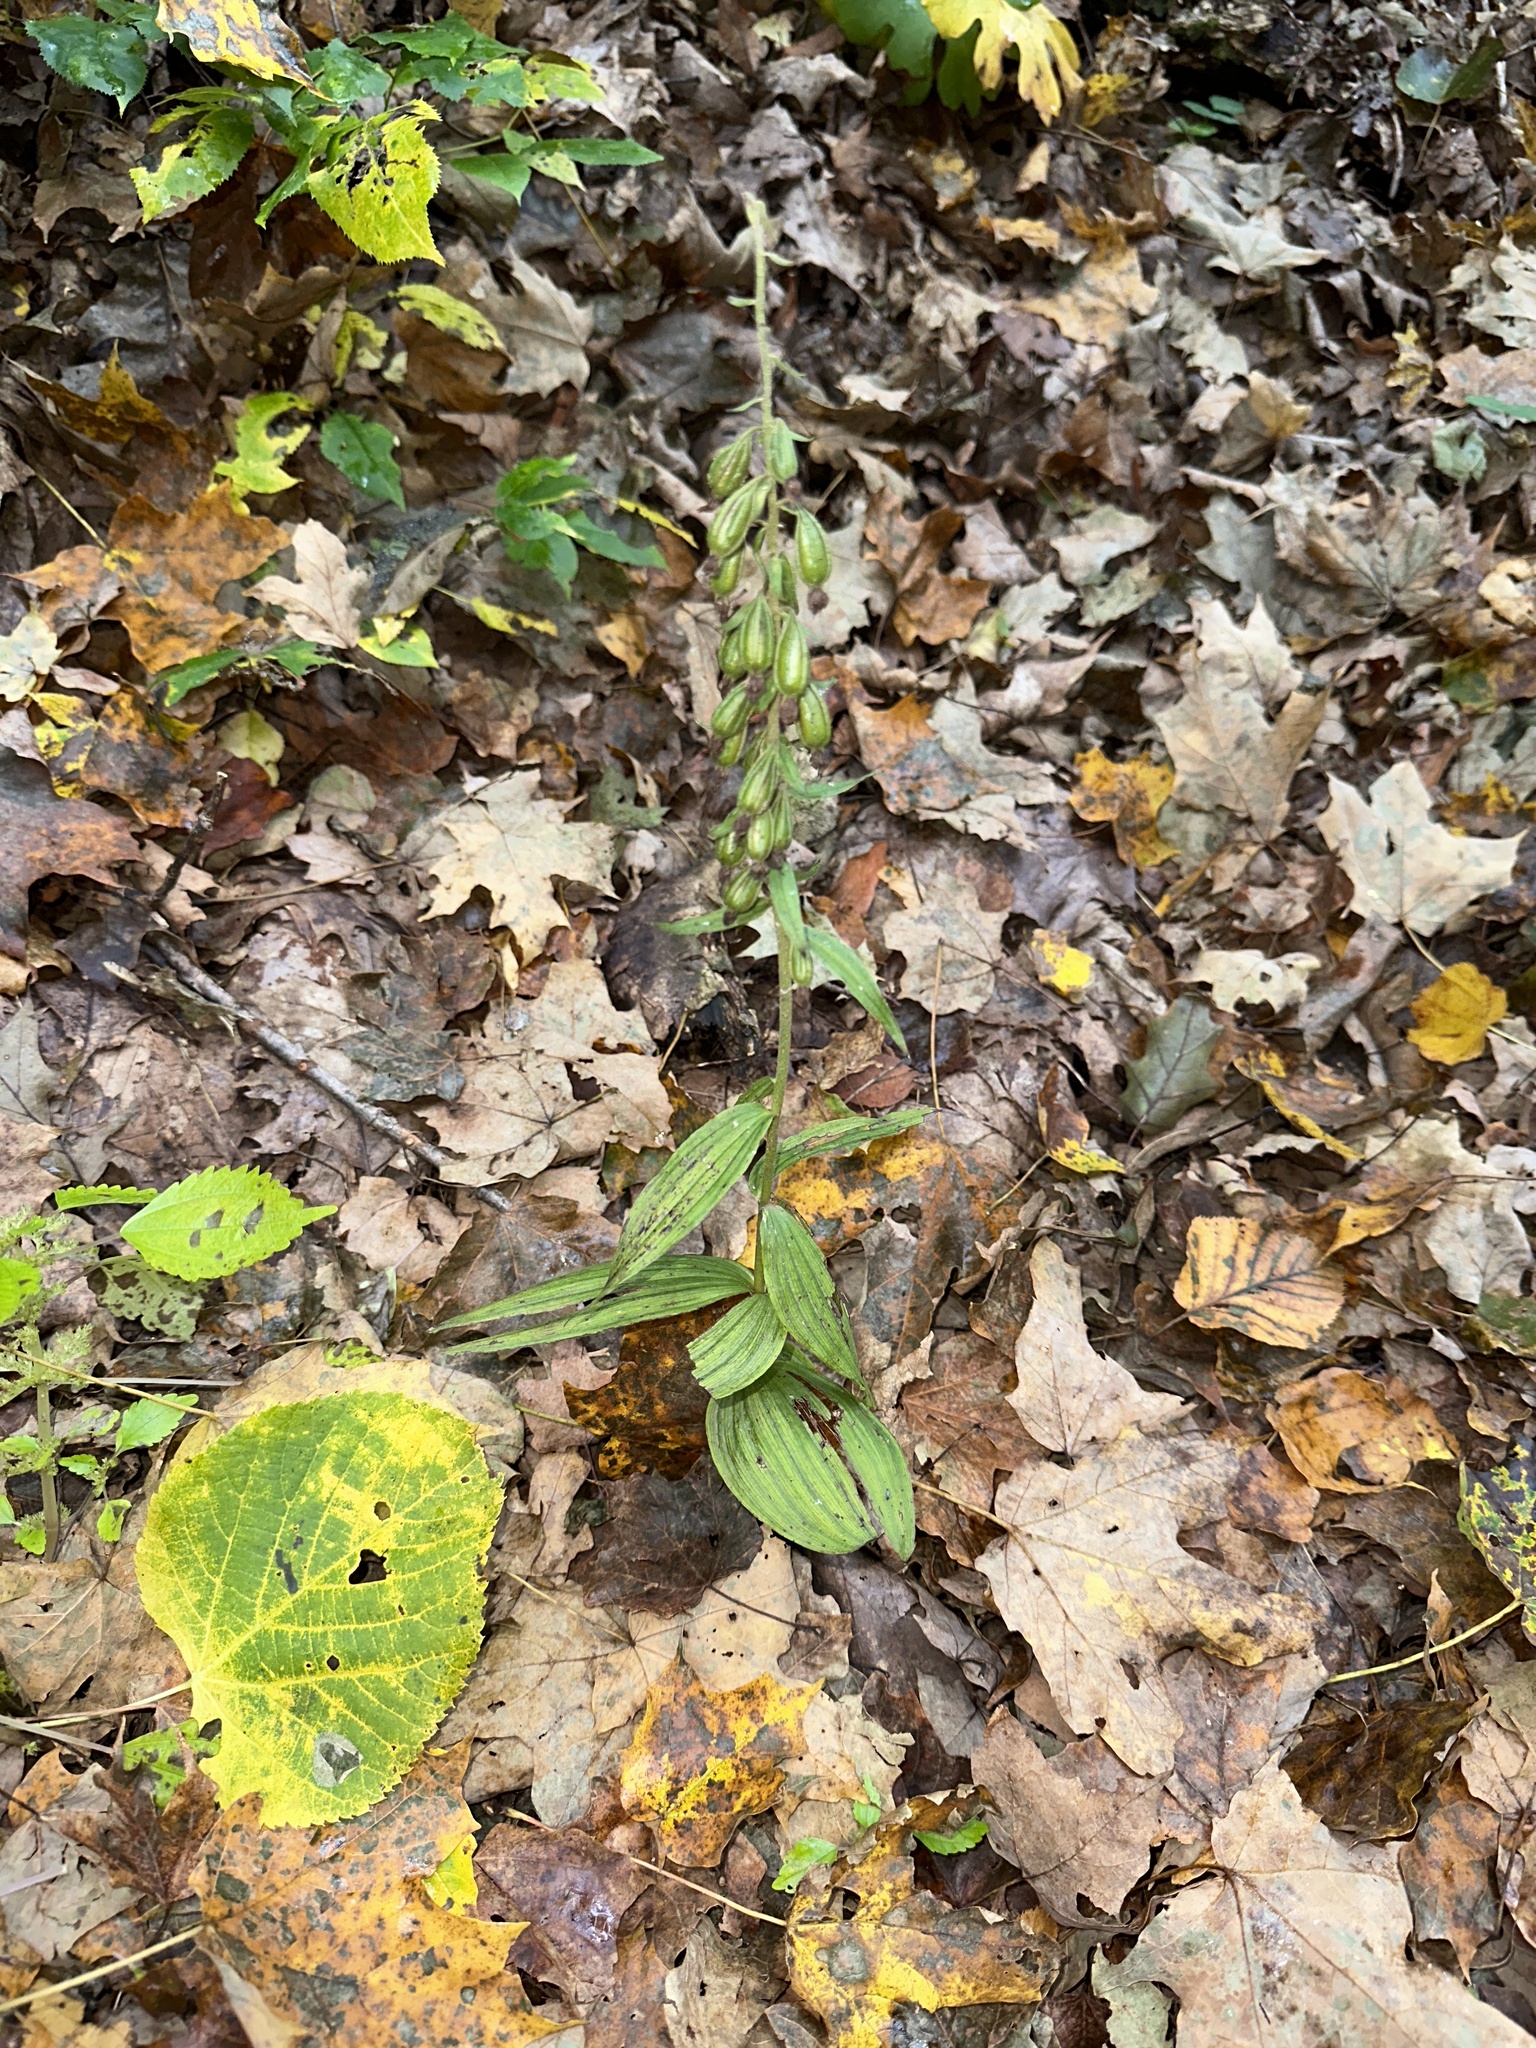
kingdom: Plantae
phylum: Tracheophyta
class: Liliopsida
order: Asparagales
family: Orchidaceae
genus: Epipactis
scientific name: Epipactis helleborine
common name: Broad-leaved helleborine
